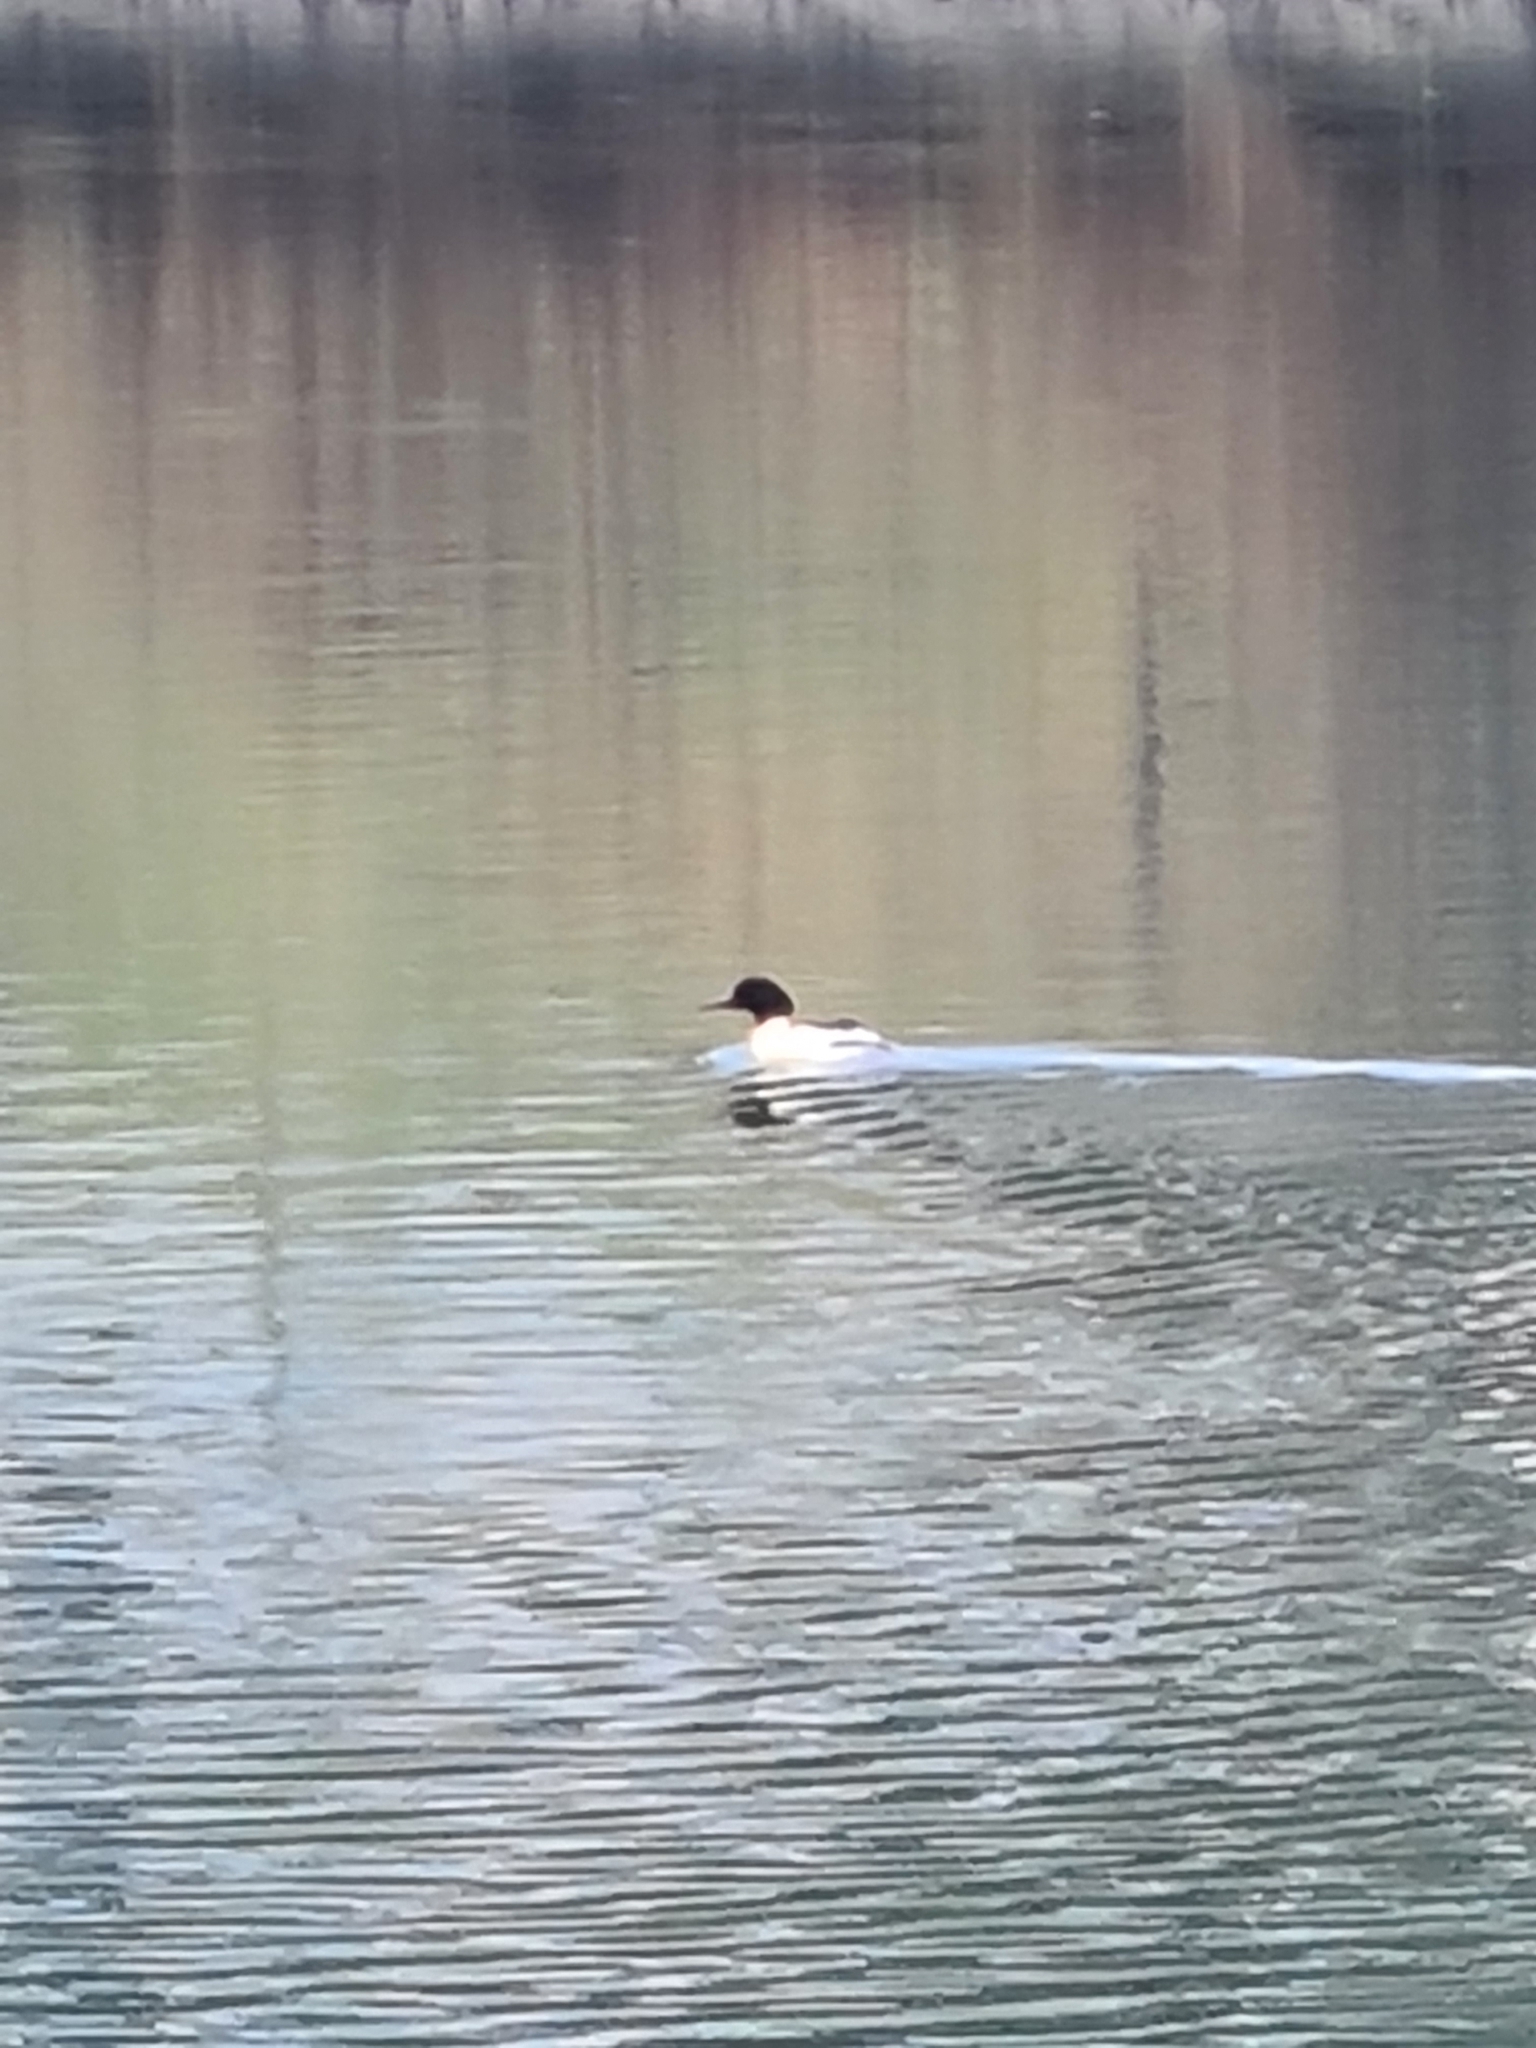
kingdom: Animalia
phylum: Chordata
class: Aves
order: Anseriformes
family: Anatidae
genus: Mergus
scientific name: Mergus merganser
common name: Common merganser
